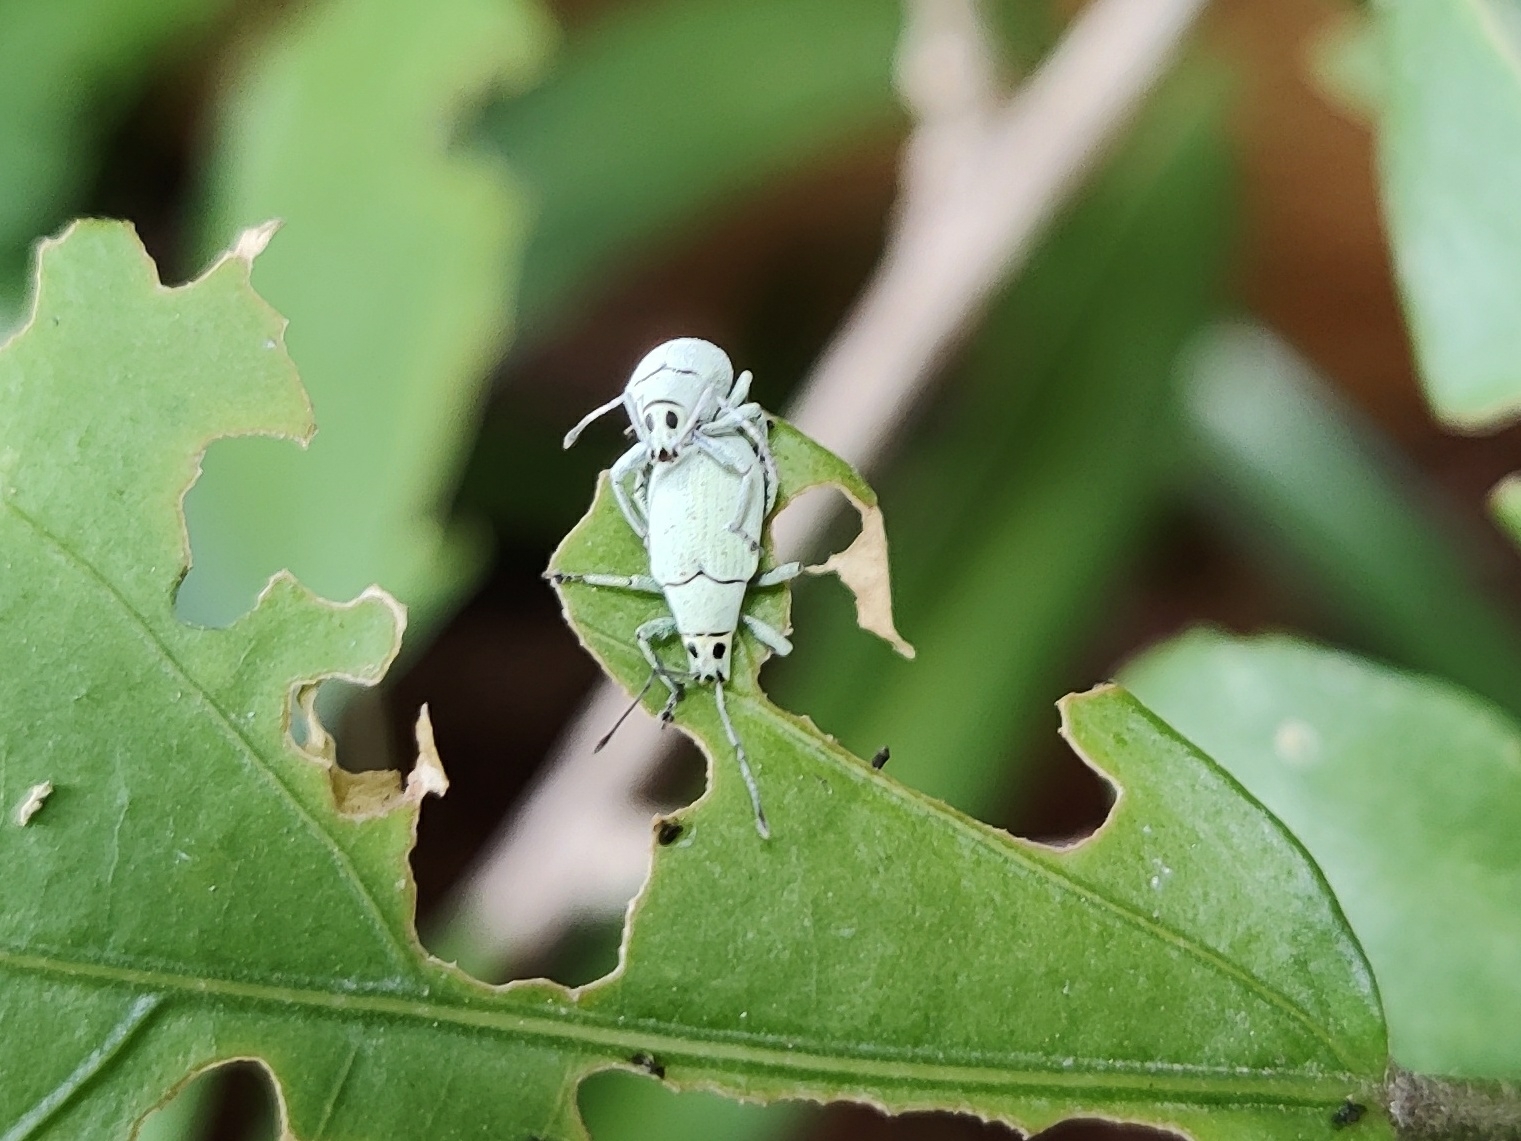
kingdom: Animalia
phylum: Arthropoda
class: Insecta
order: Coleoptera
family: Curculionidae
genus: Myllocerus
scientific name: Myllocerus paetus
